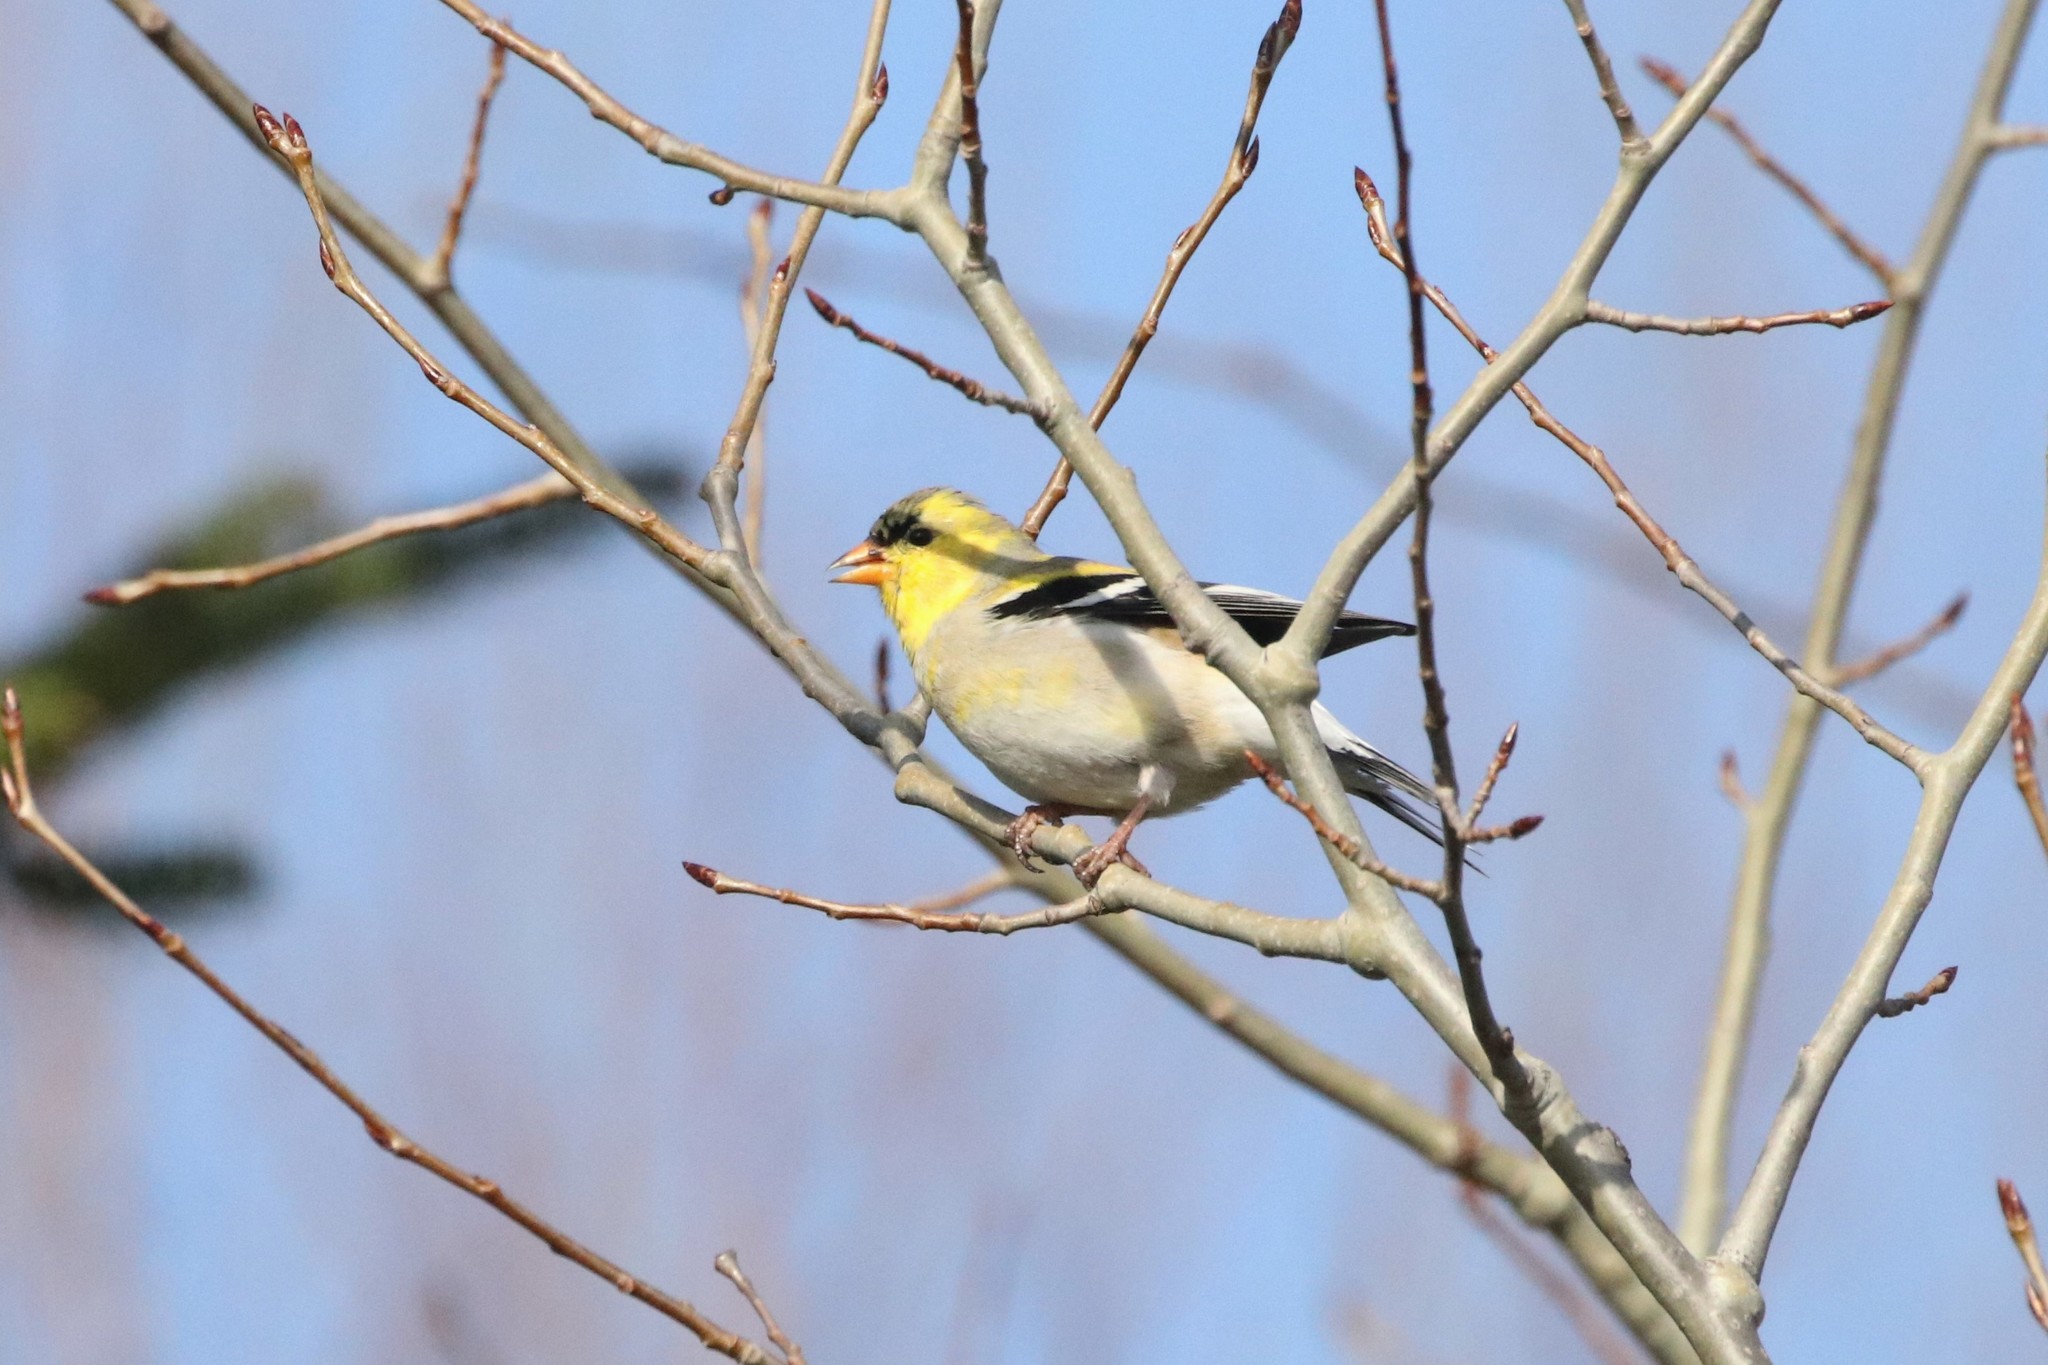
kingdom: Animalia
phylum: Chordata
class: Aves
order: Passeriformes
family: Fringillidae
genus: Spinus
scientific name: Spinus tristis
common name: American goldfinch
